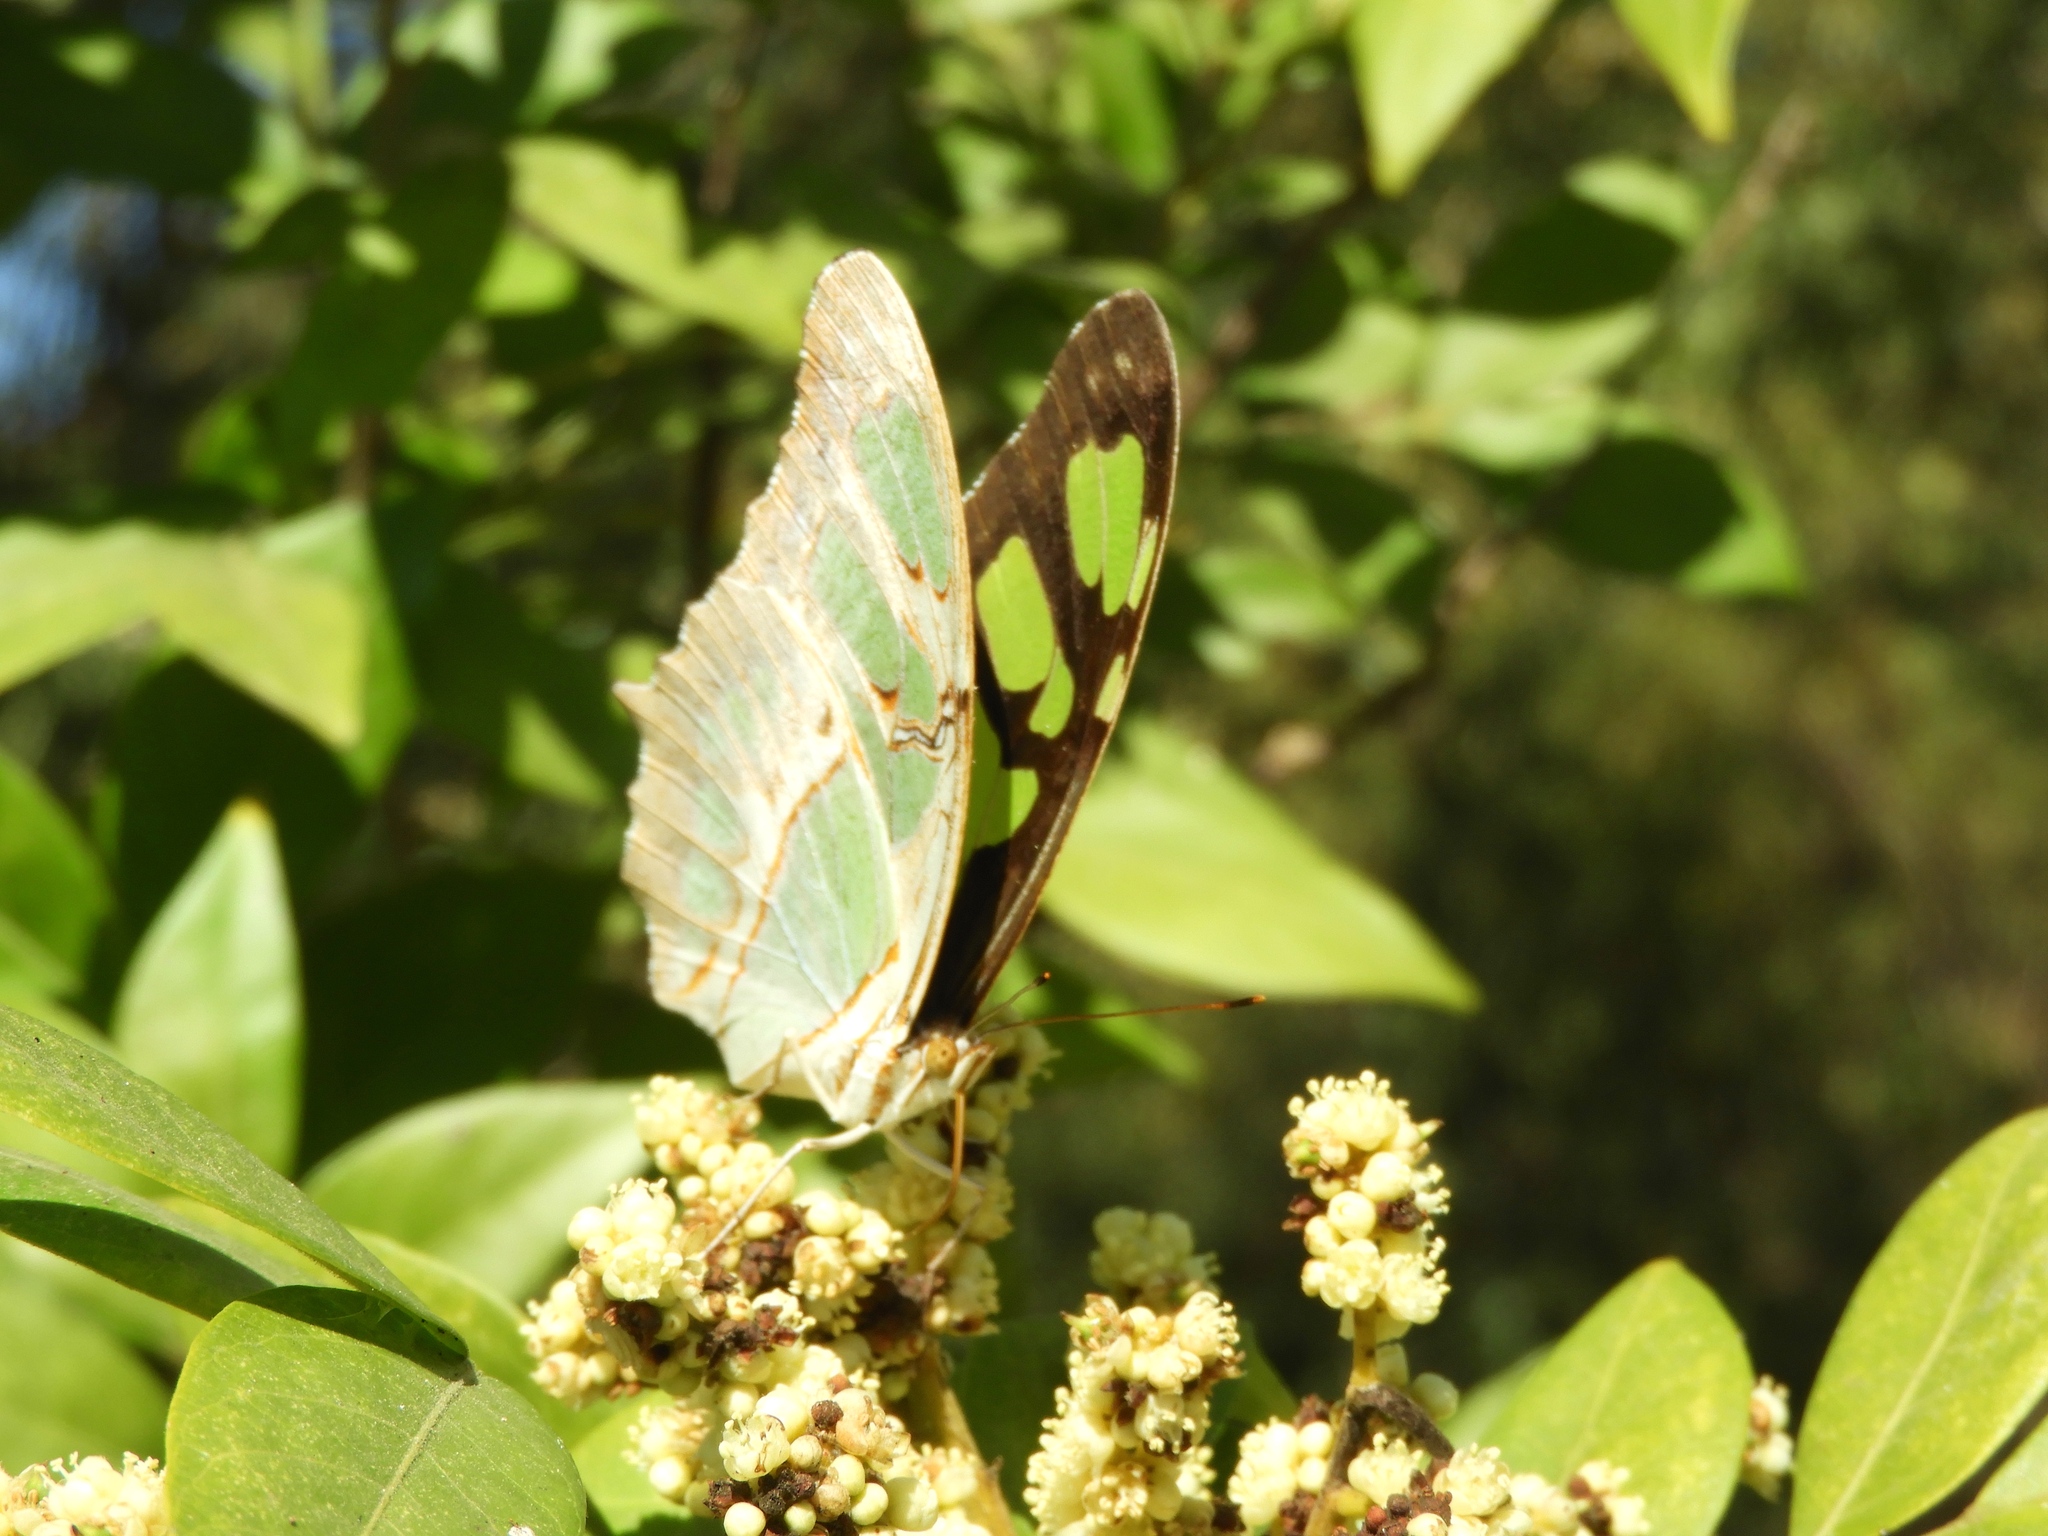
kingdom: Animalia
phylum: Arthropoda
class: Insecta
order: Lepidoptera
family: Nymphalidae
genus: Siproeta
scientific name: Siproeta stelenes
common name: Malachite
